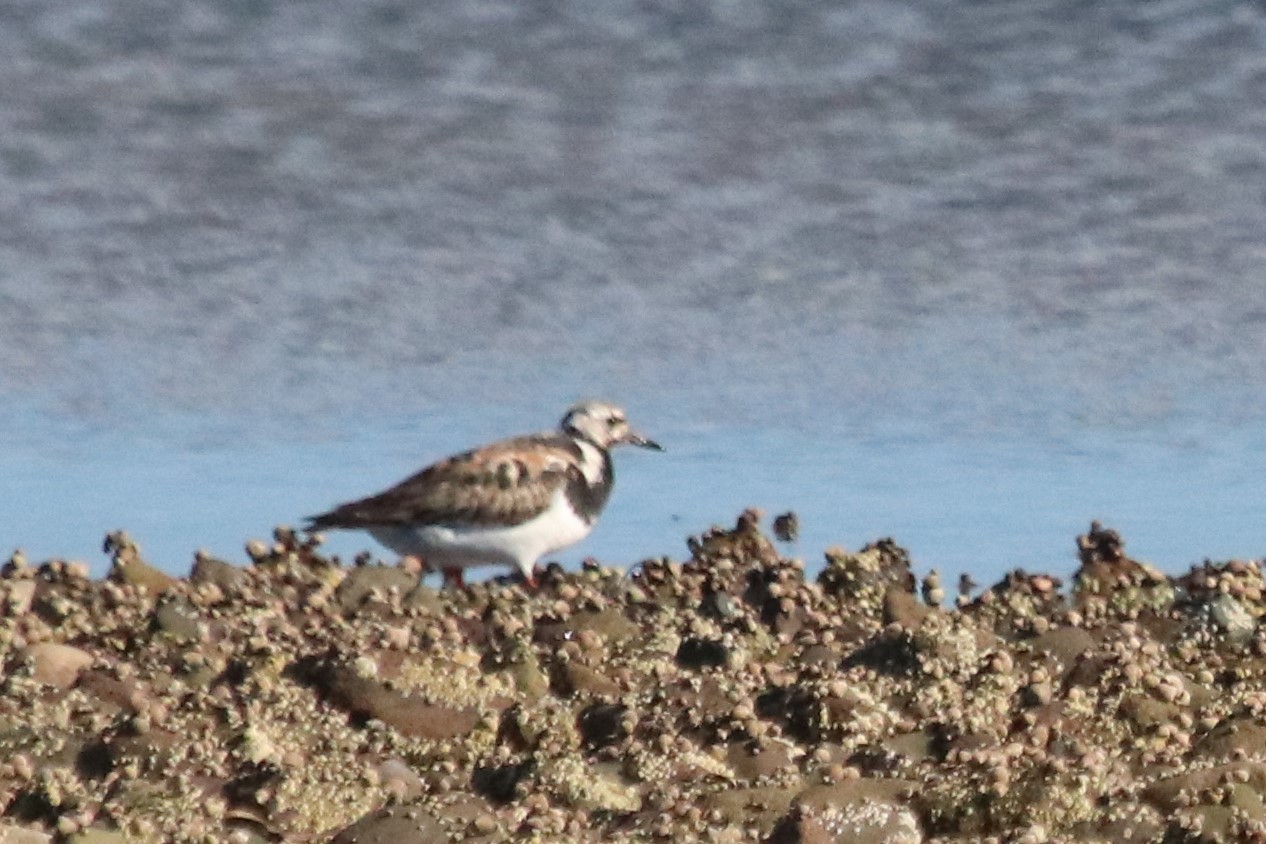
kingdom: Animalia
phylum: Chordata
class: Aves
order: Charadriiformes
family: Scolopacidae
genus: Arenaria
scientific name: Arenaria interpres
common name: Ruddy turnstone
